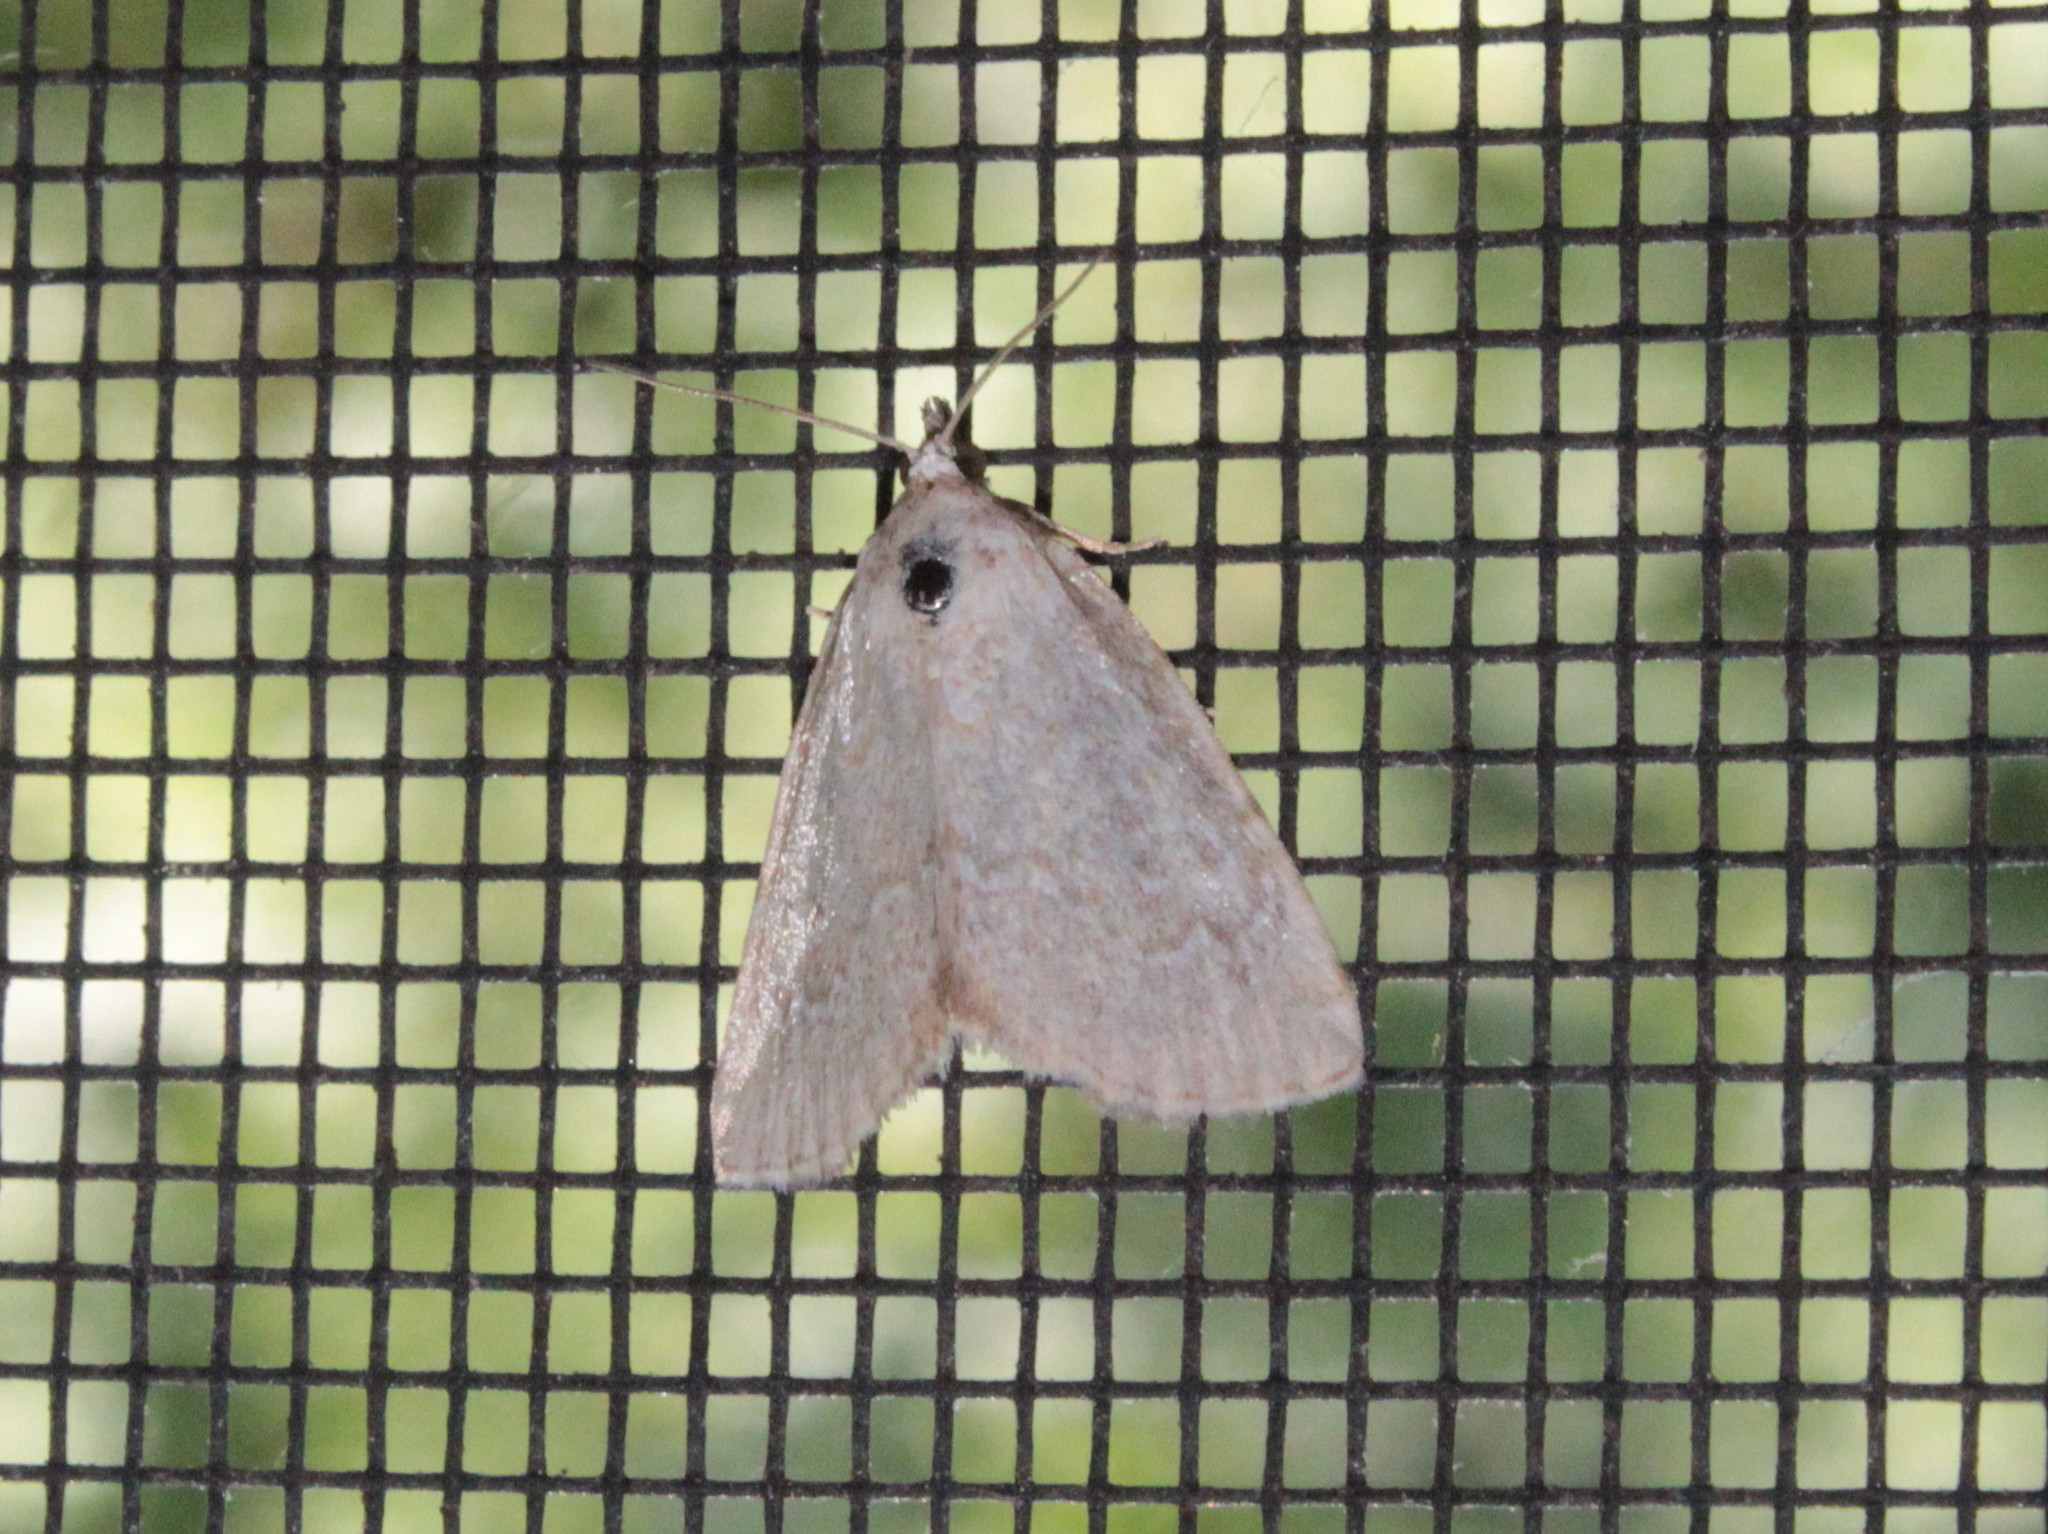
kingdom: Animalia
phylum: Arthropoda
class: Insecta
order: Lepidoptera
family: Noctuidae
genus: Protodeltote
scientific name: Protodeltote albidula
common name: Pale glyph
